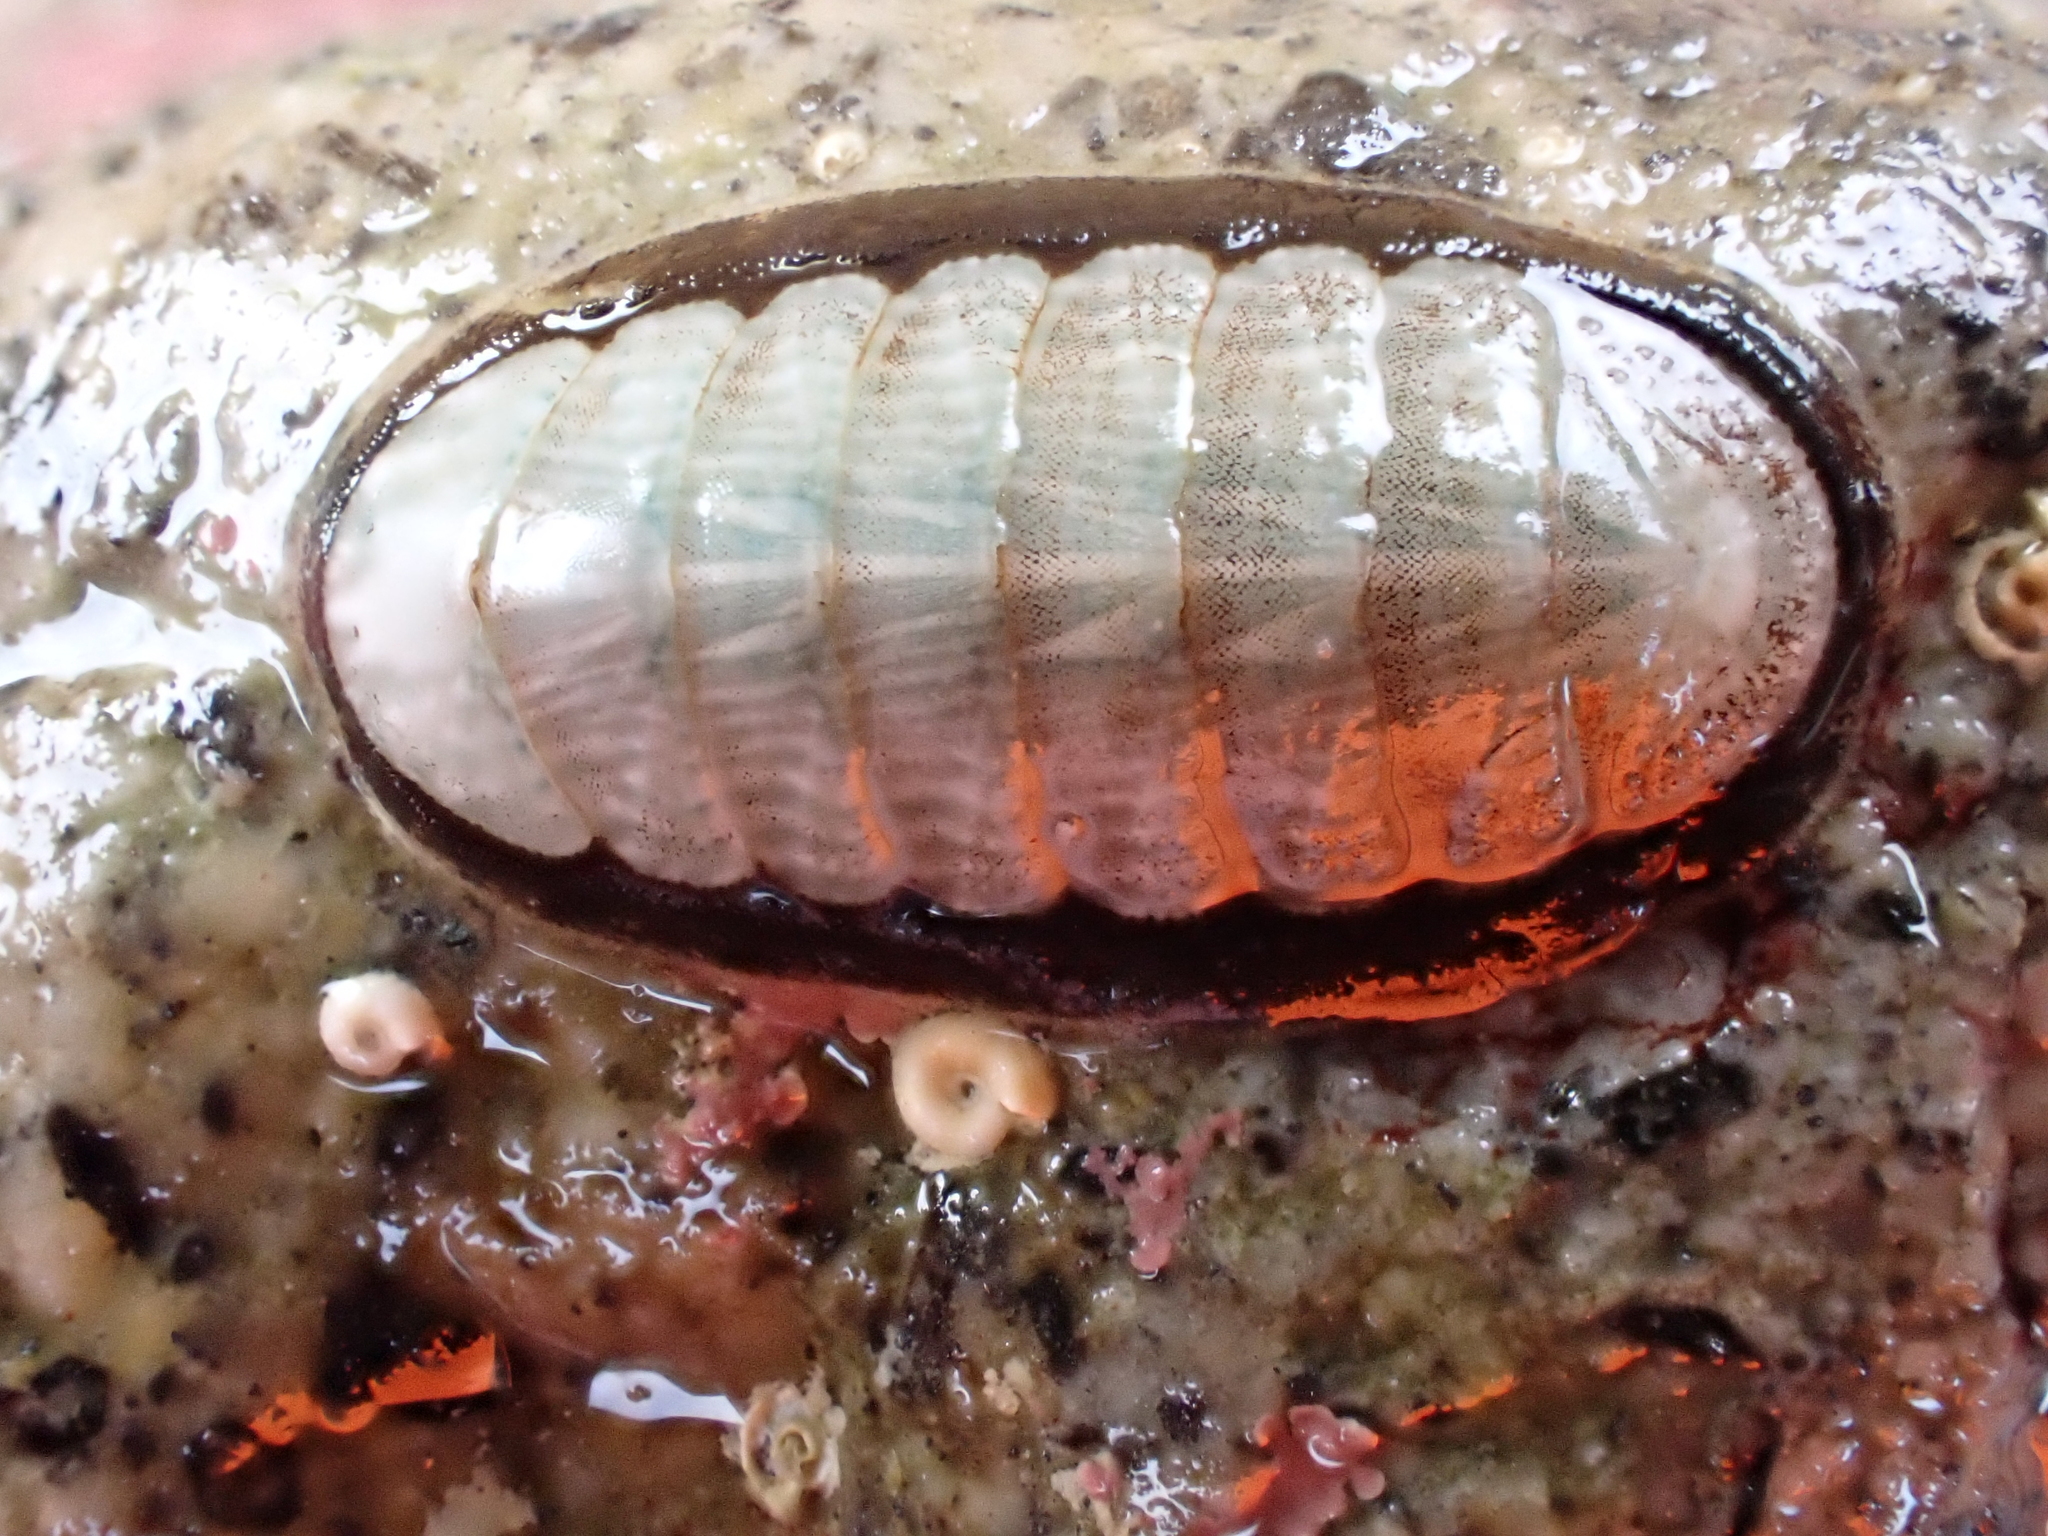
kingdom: Animalia
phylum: Mollusca
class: Polyplacophora
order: Chitonida
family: Ischnochitonidae
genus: Ischnochiton
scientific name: Ischnochiton maorianus
